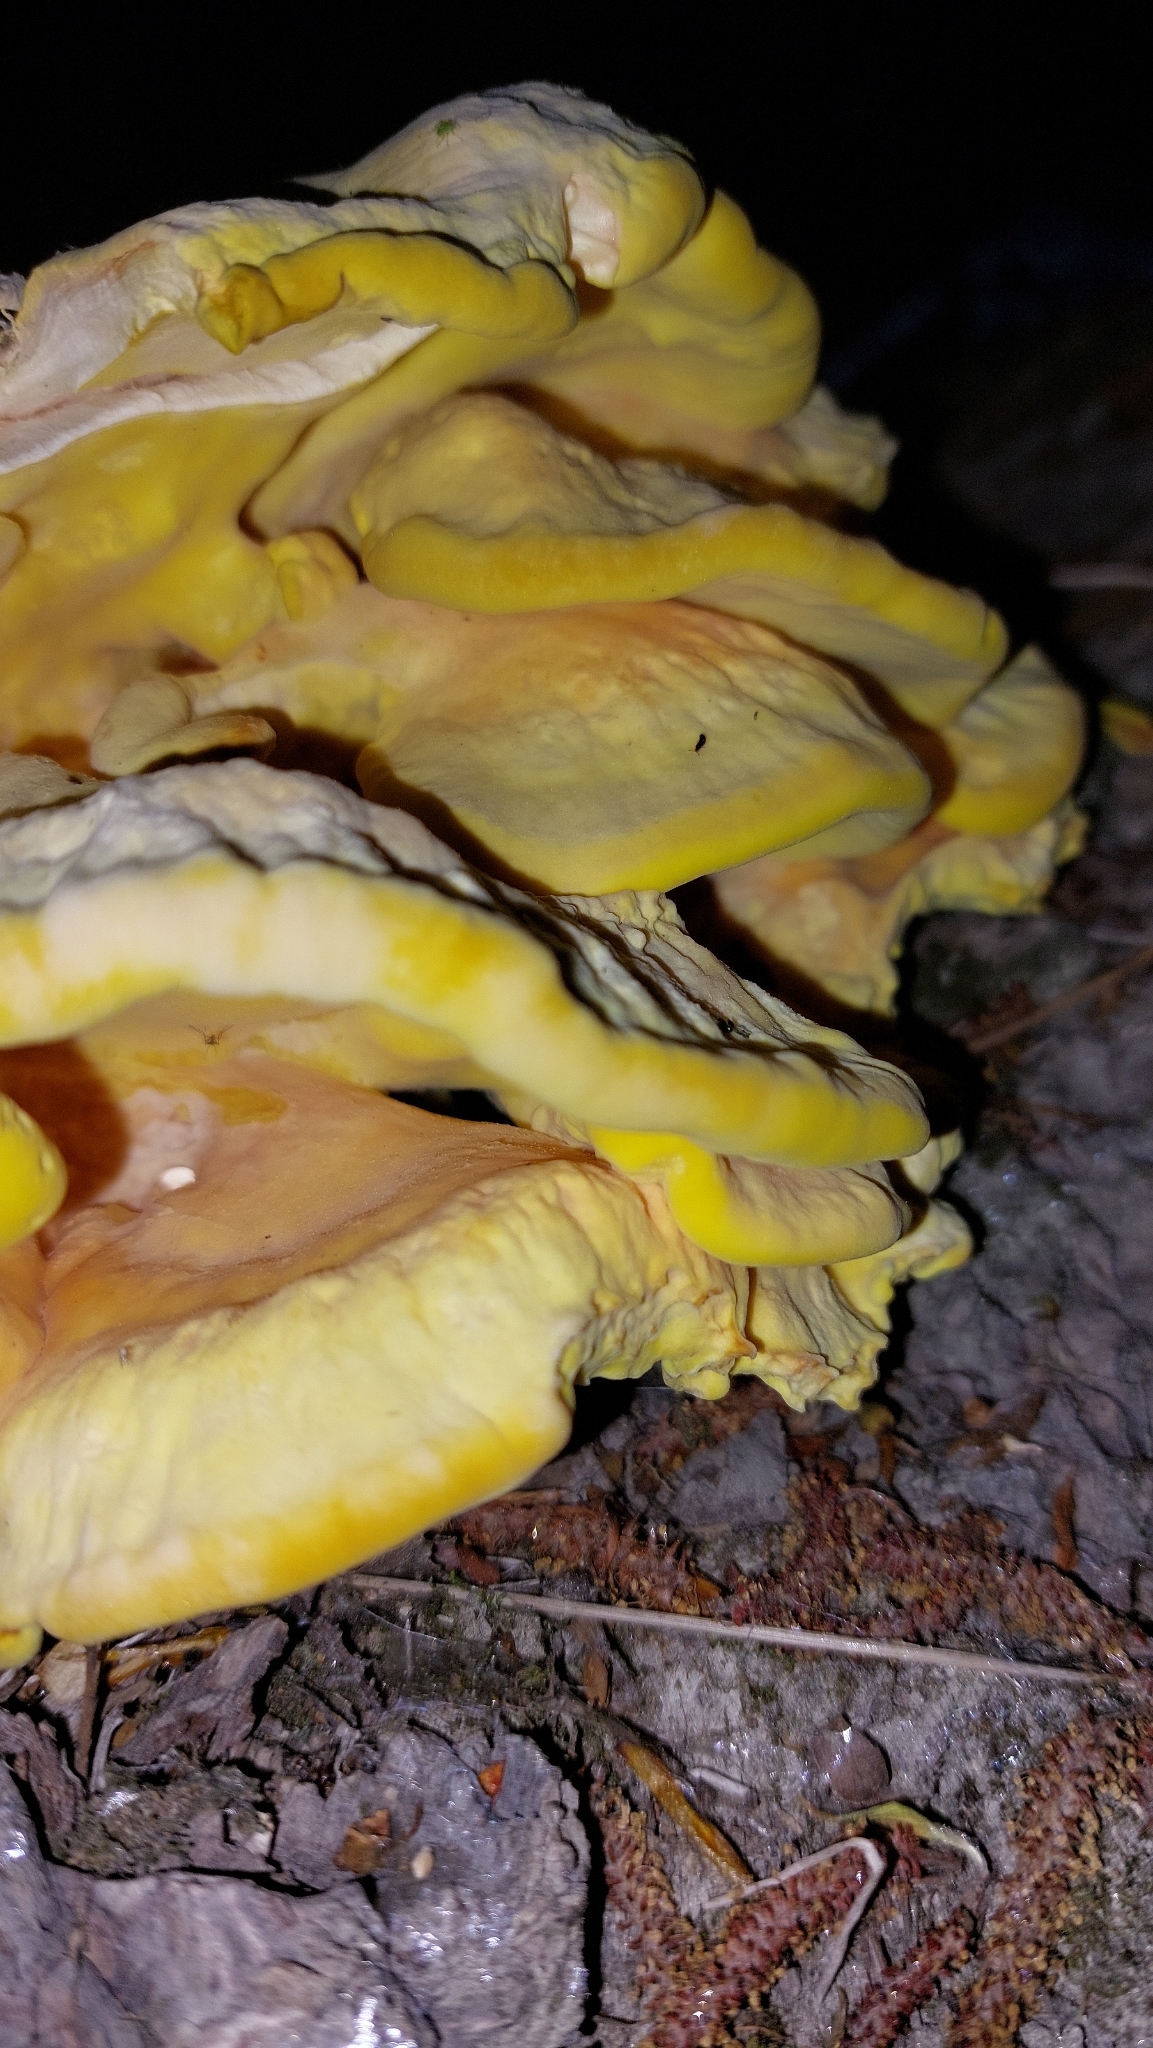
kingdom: Fungi
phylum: Basidiomycota
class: Agaricomycetes
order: Polyporales
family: Laetiporaceae
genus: Laetiporus
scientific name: Laetiporus sulphureus
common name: Chicken of the woods
